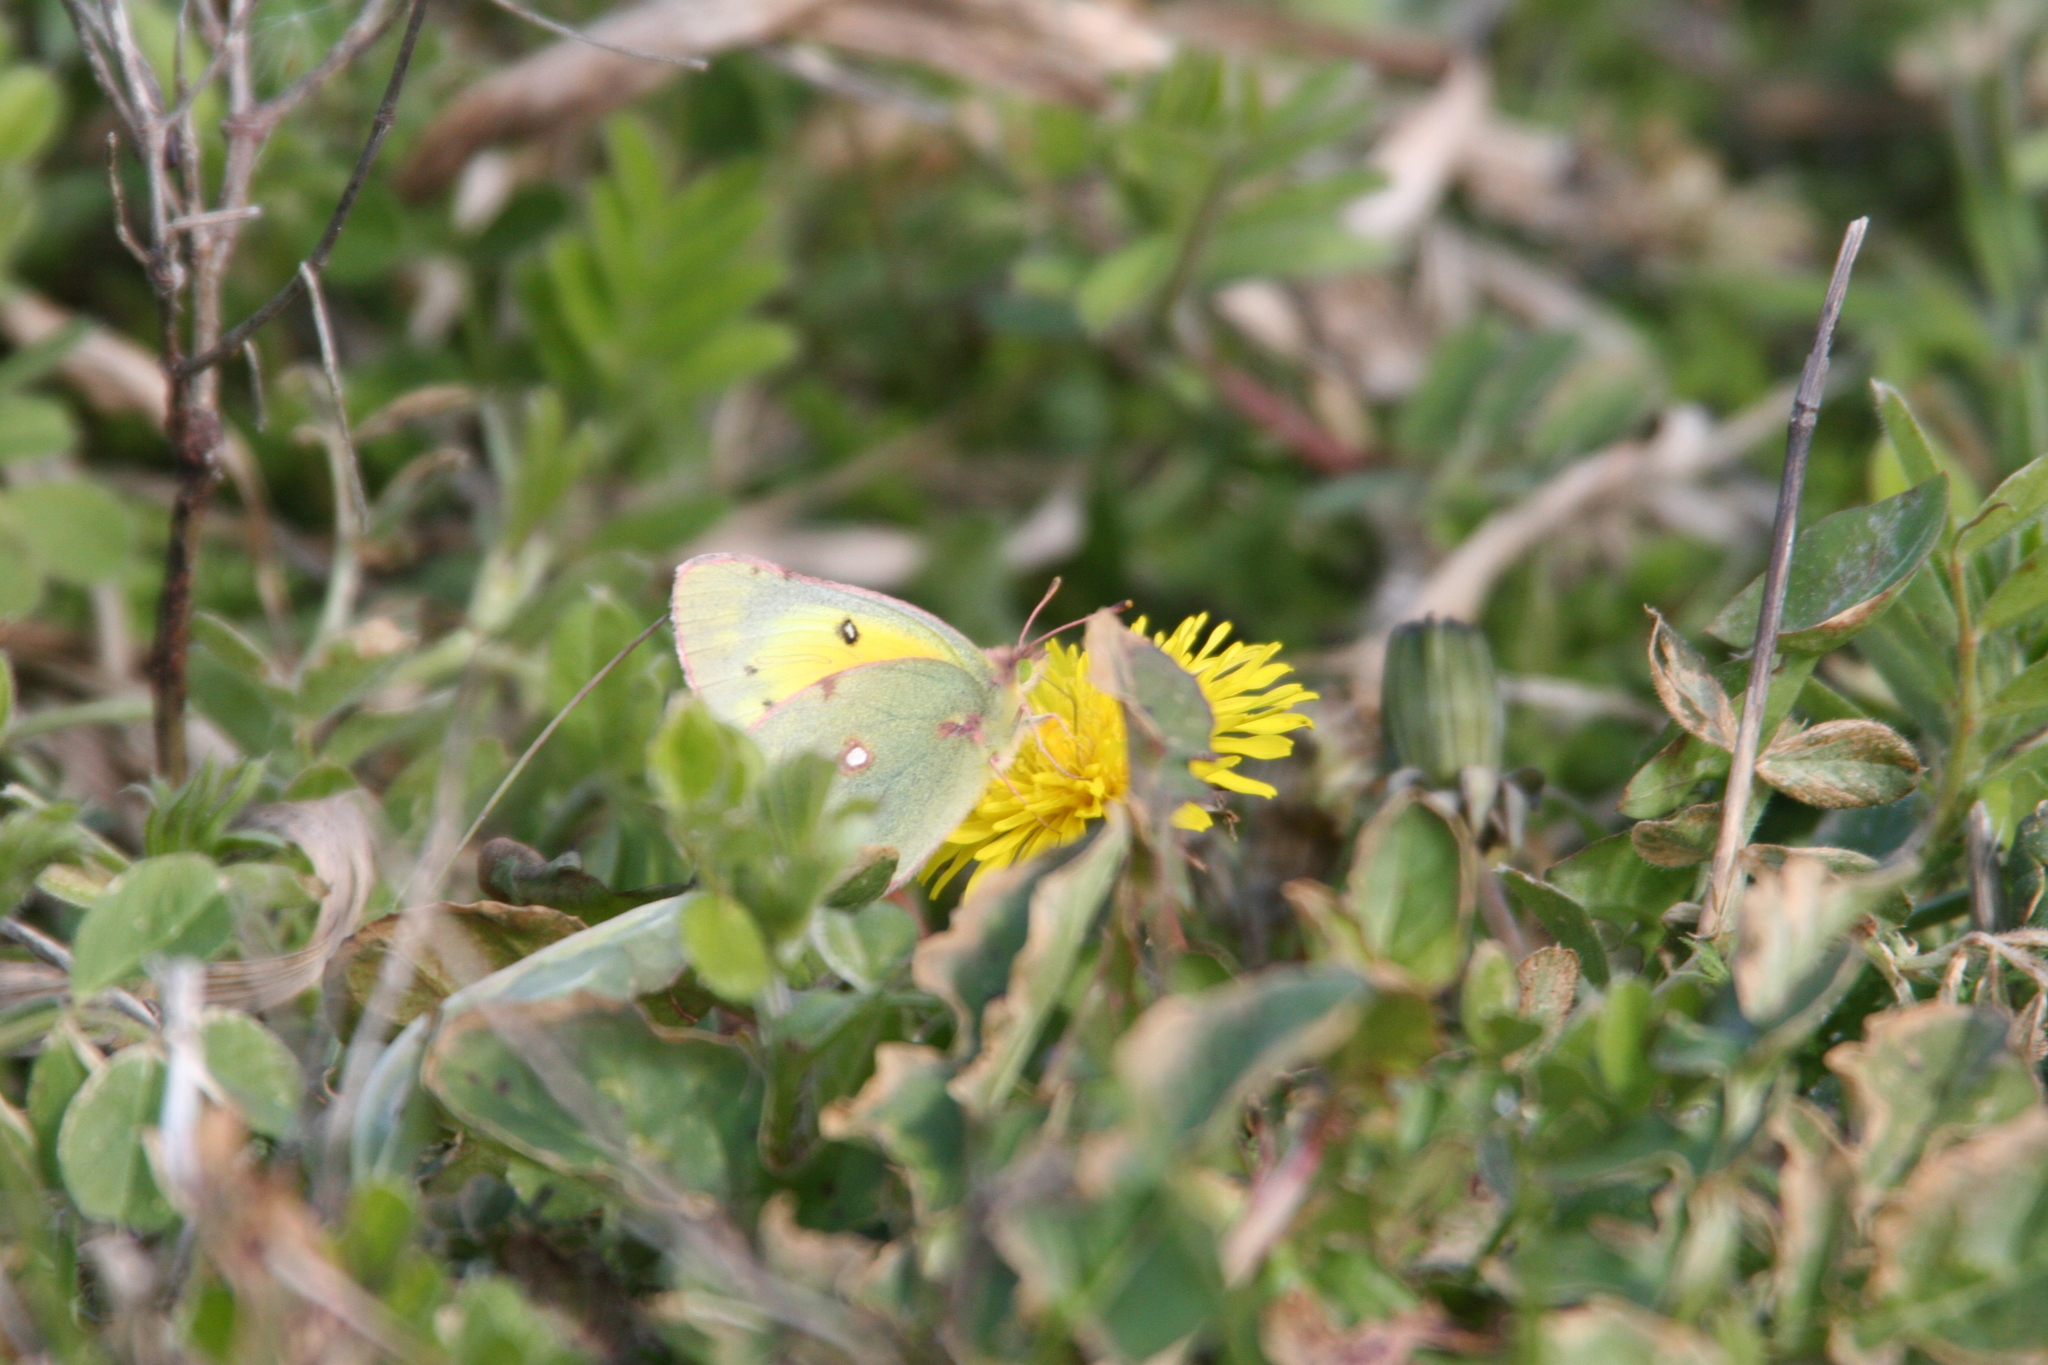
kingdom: Animalia
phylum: Arthropoda
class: Insecta
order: Lepidoptera
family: Pieridae
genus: Colias
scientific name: Colias eurytheme
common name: Alfalfa butterfly
